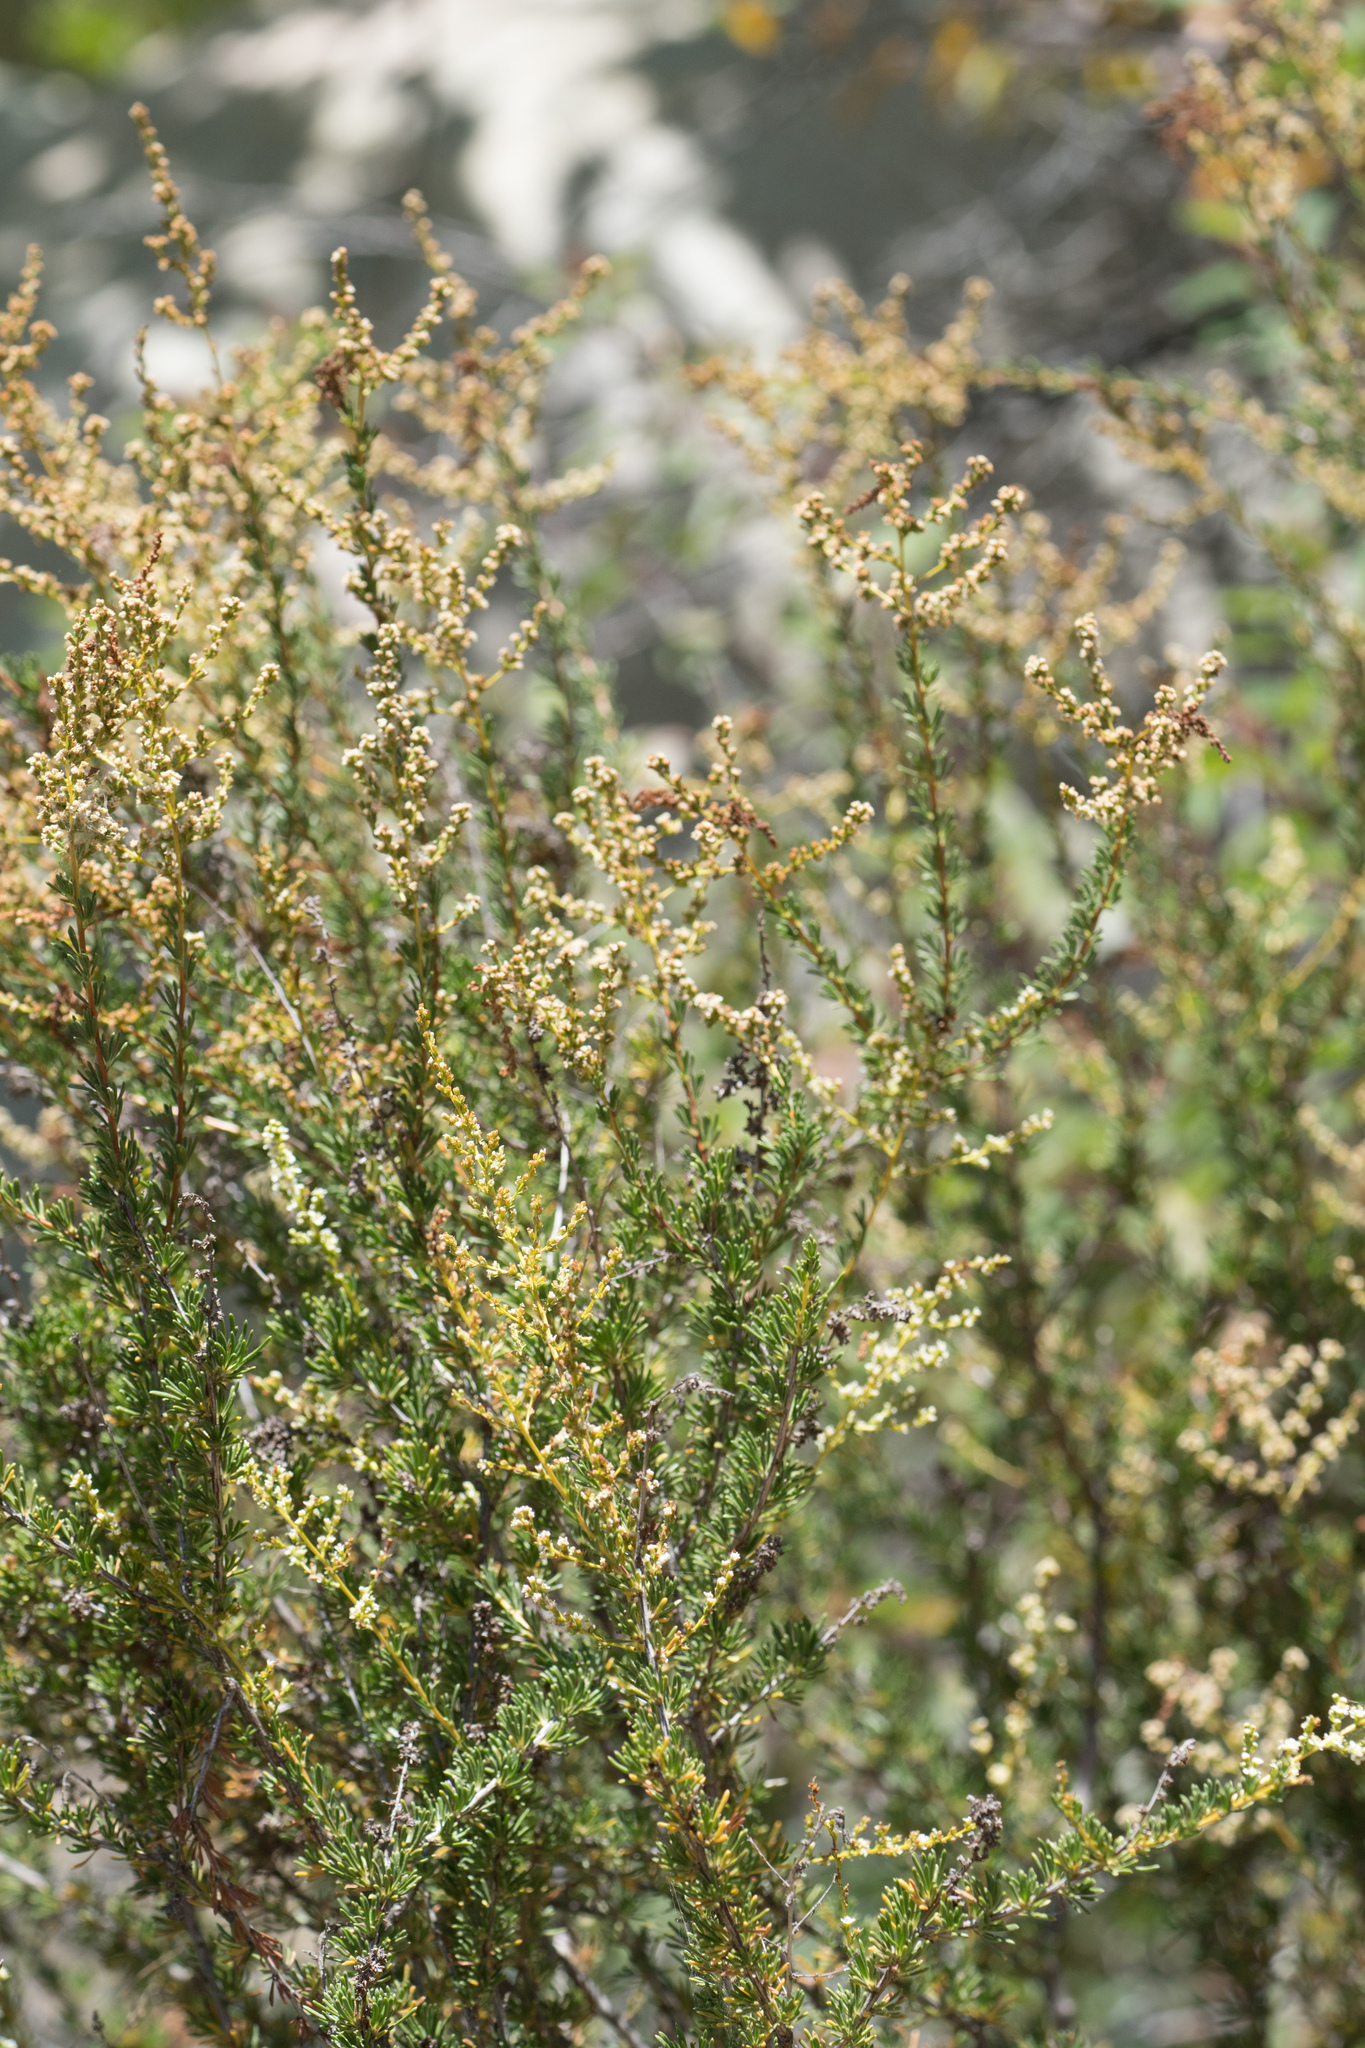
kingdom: Plantae
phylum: Tracheophyta
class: Magnoliopsida
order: Rosales
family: Rosaceae
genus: Adenostoma
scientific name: Adenostoma fasciculatum
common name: Chamise
